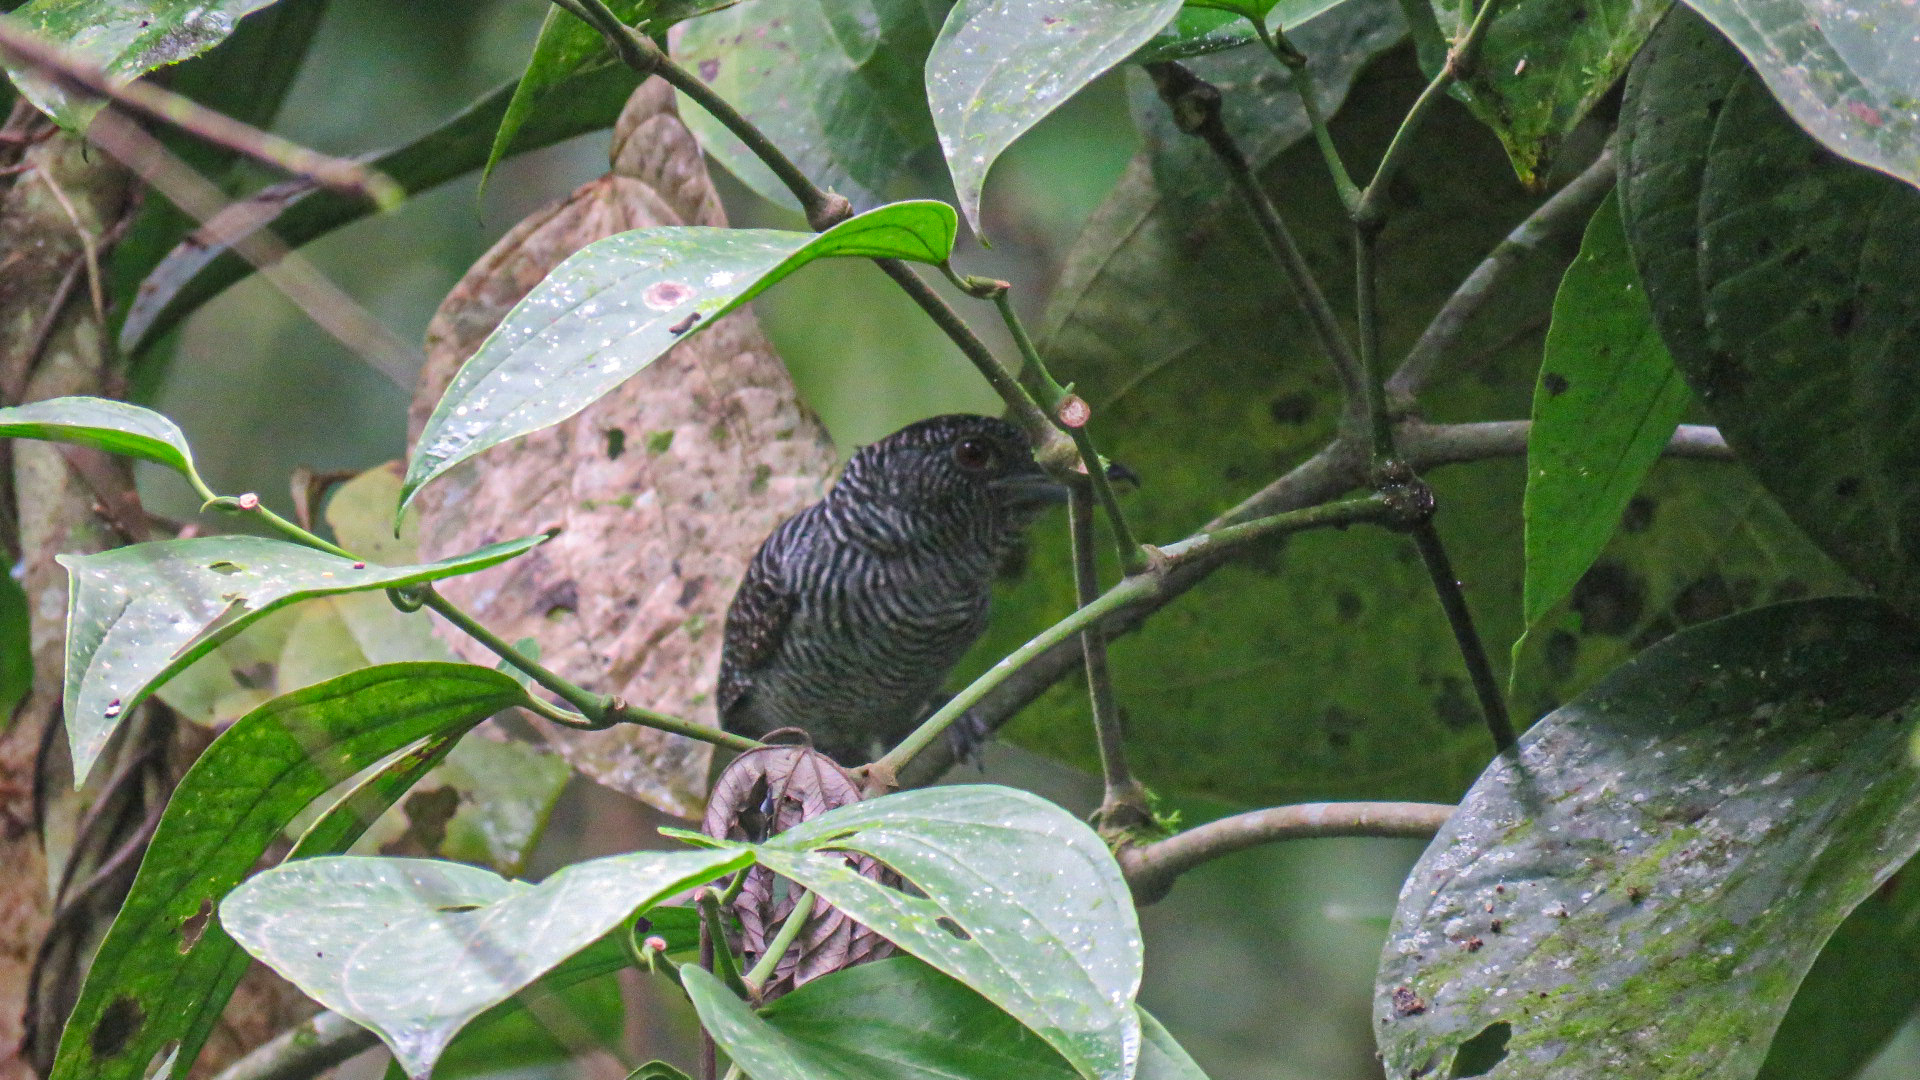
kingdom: Animalia
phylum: Chordata
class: Aves
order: Passeriformes
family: Thamnophilidae
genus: Cymbilaimus
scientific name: Cymbilaimus lineatus
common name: Fasciated antshrike
